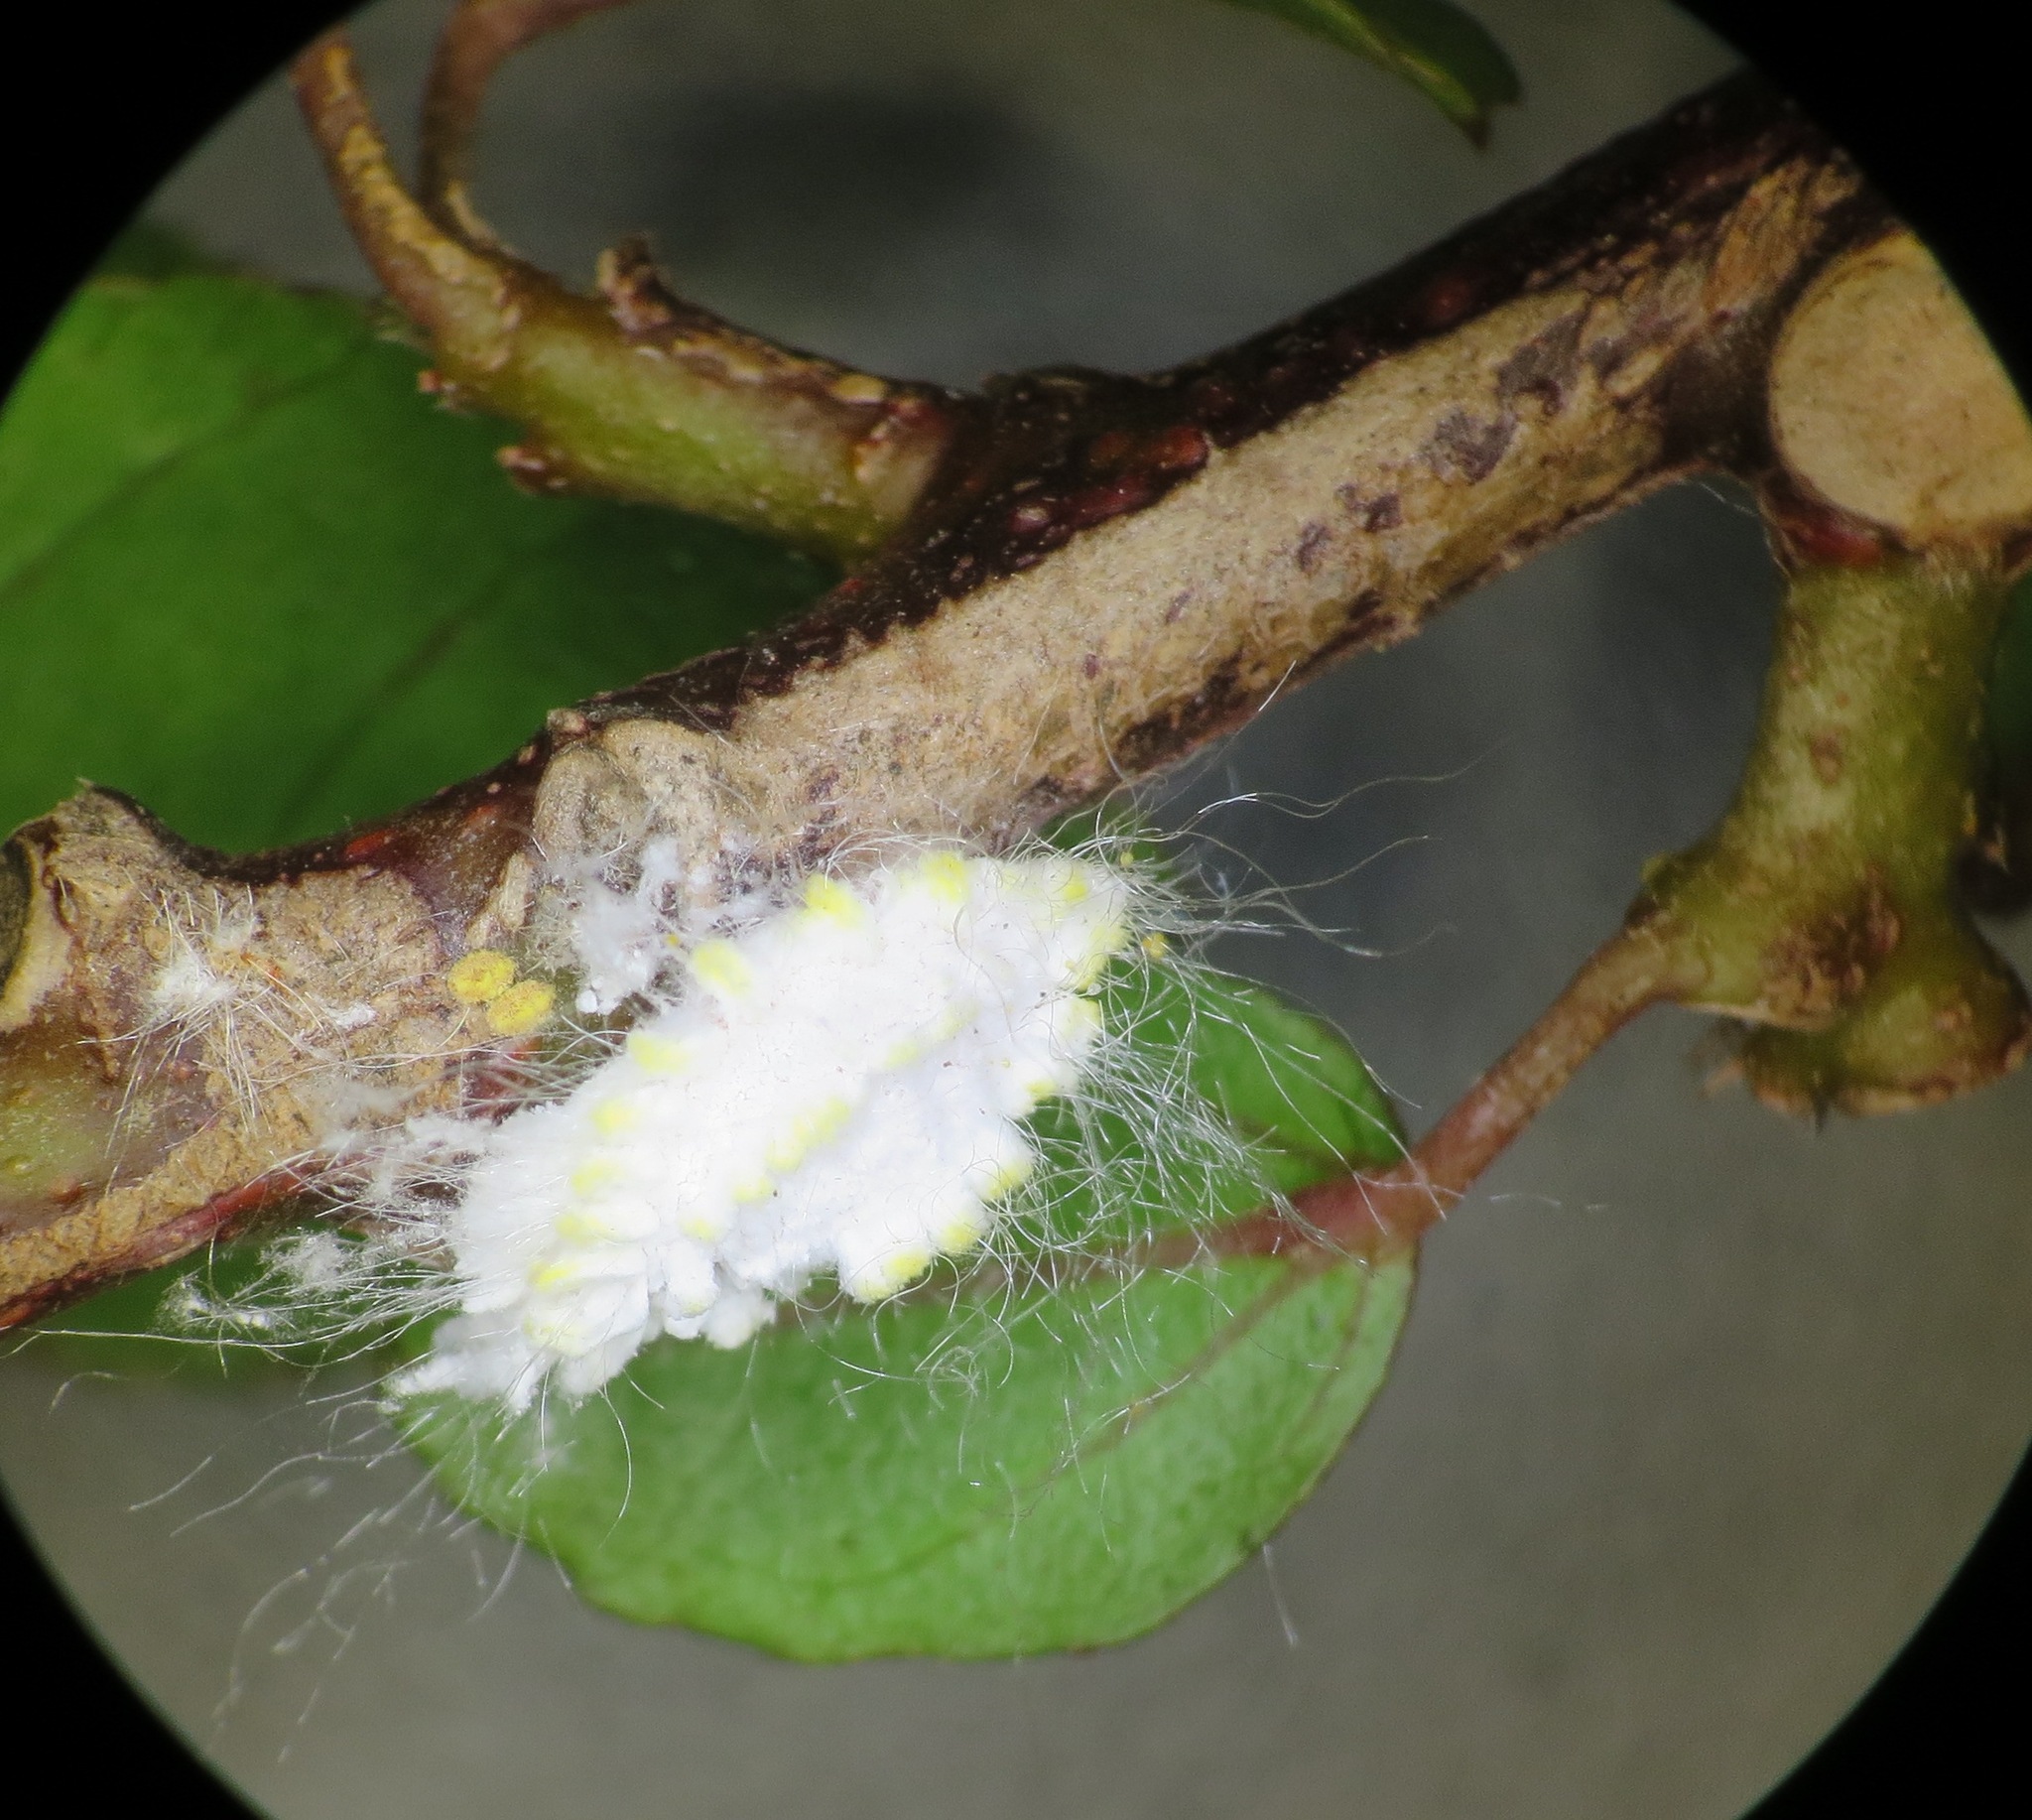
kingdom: Animalia
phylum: Arthropoda
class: Insecta
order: Hemiptera
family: Margarodidae
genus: Icerya
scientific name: Icerya seychellarum
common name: Iceplant scale
